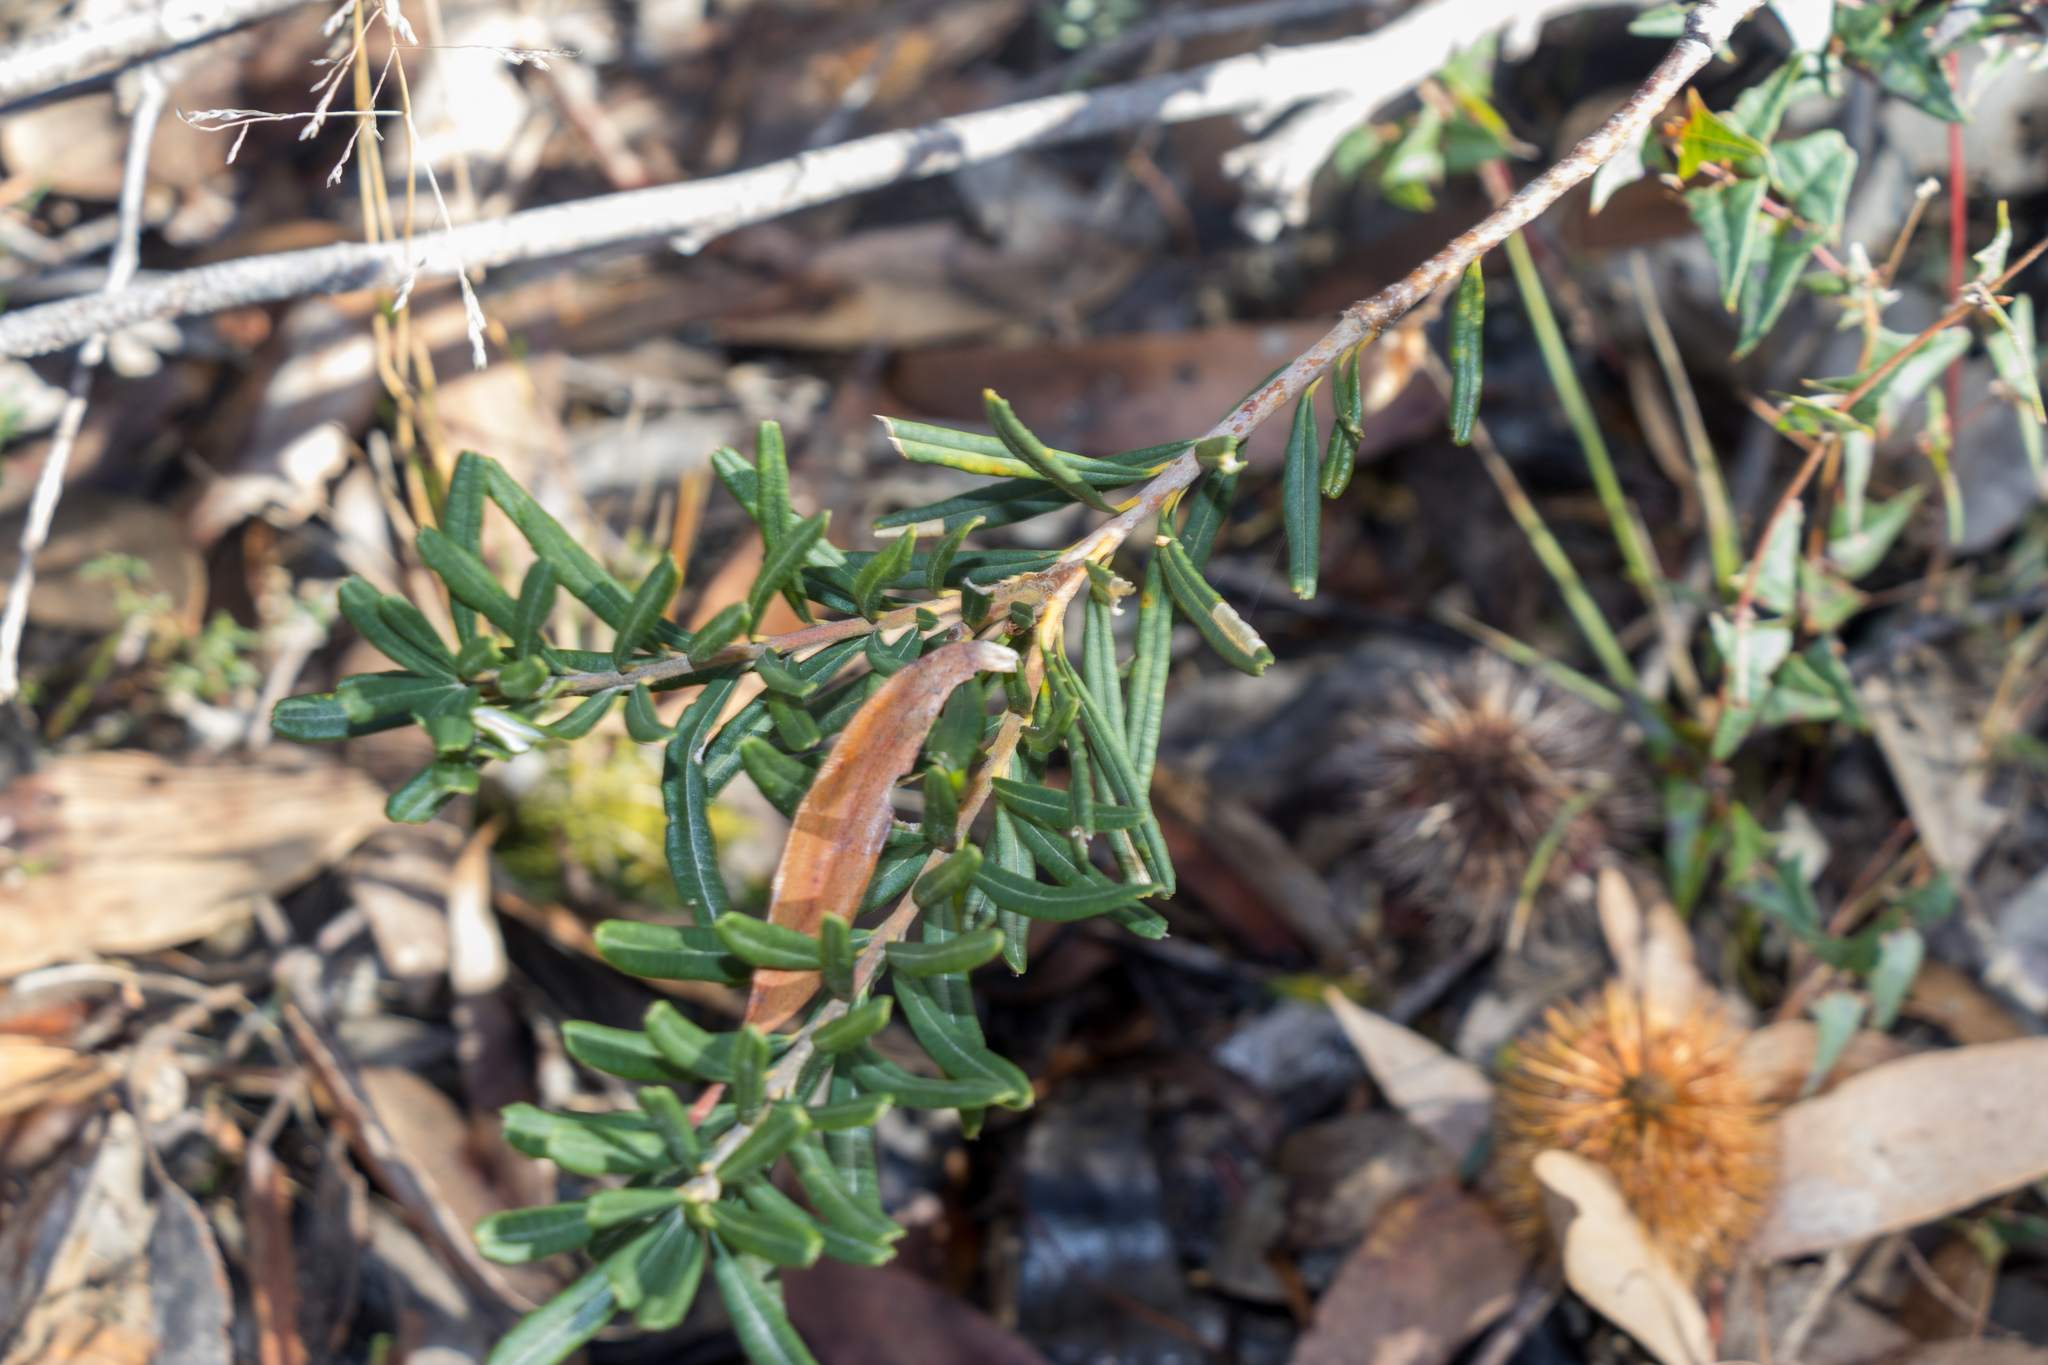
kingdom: Plantae
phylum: Tracheophyta
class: Magnoliopsida
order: Proteales
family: Proteaceae
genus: Banksia
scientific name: Banksia marginata
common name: Silver banksia
